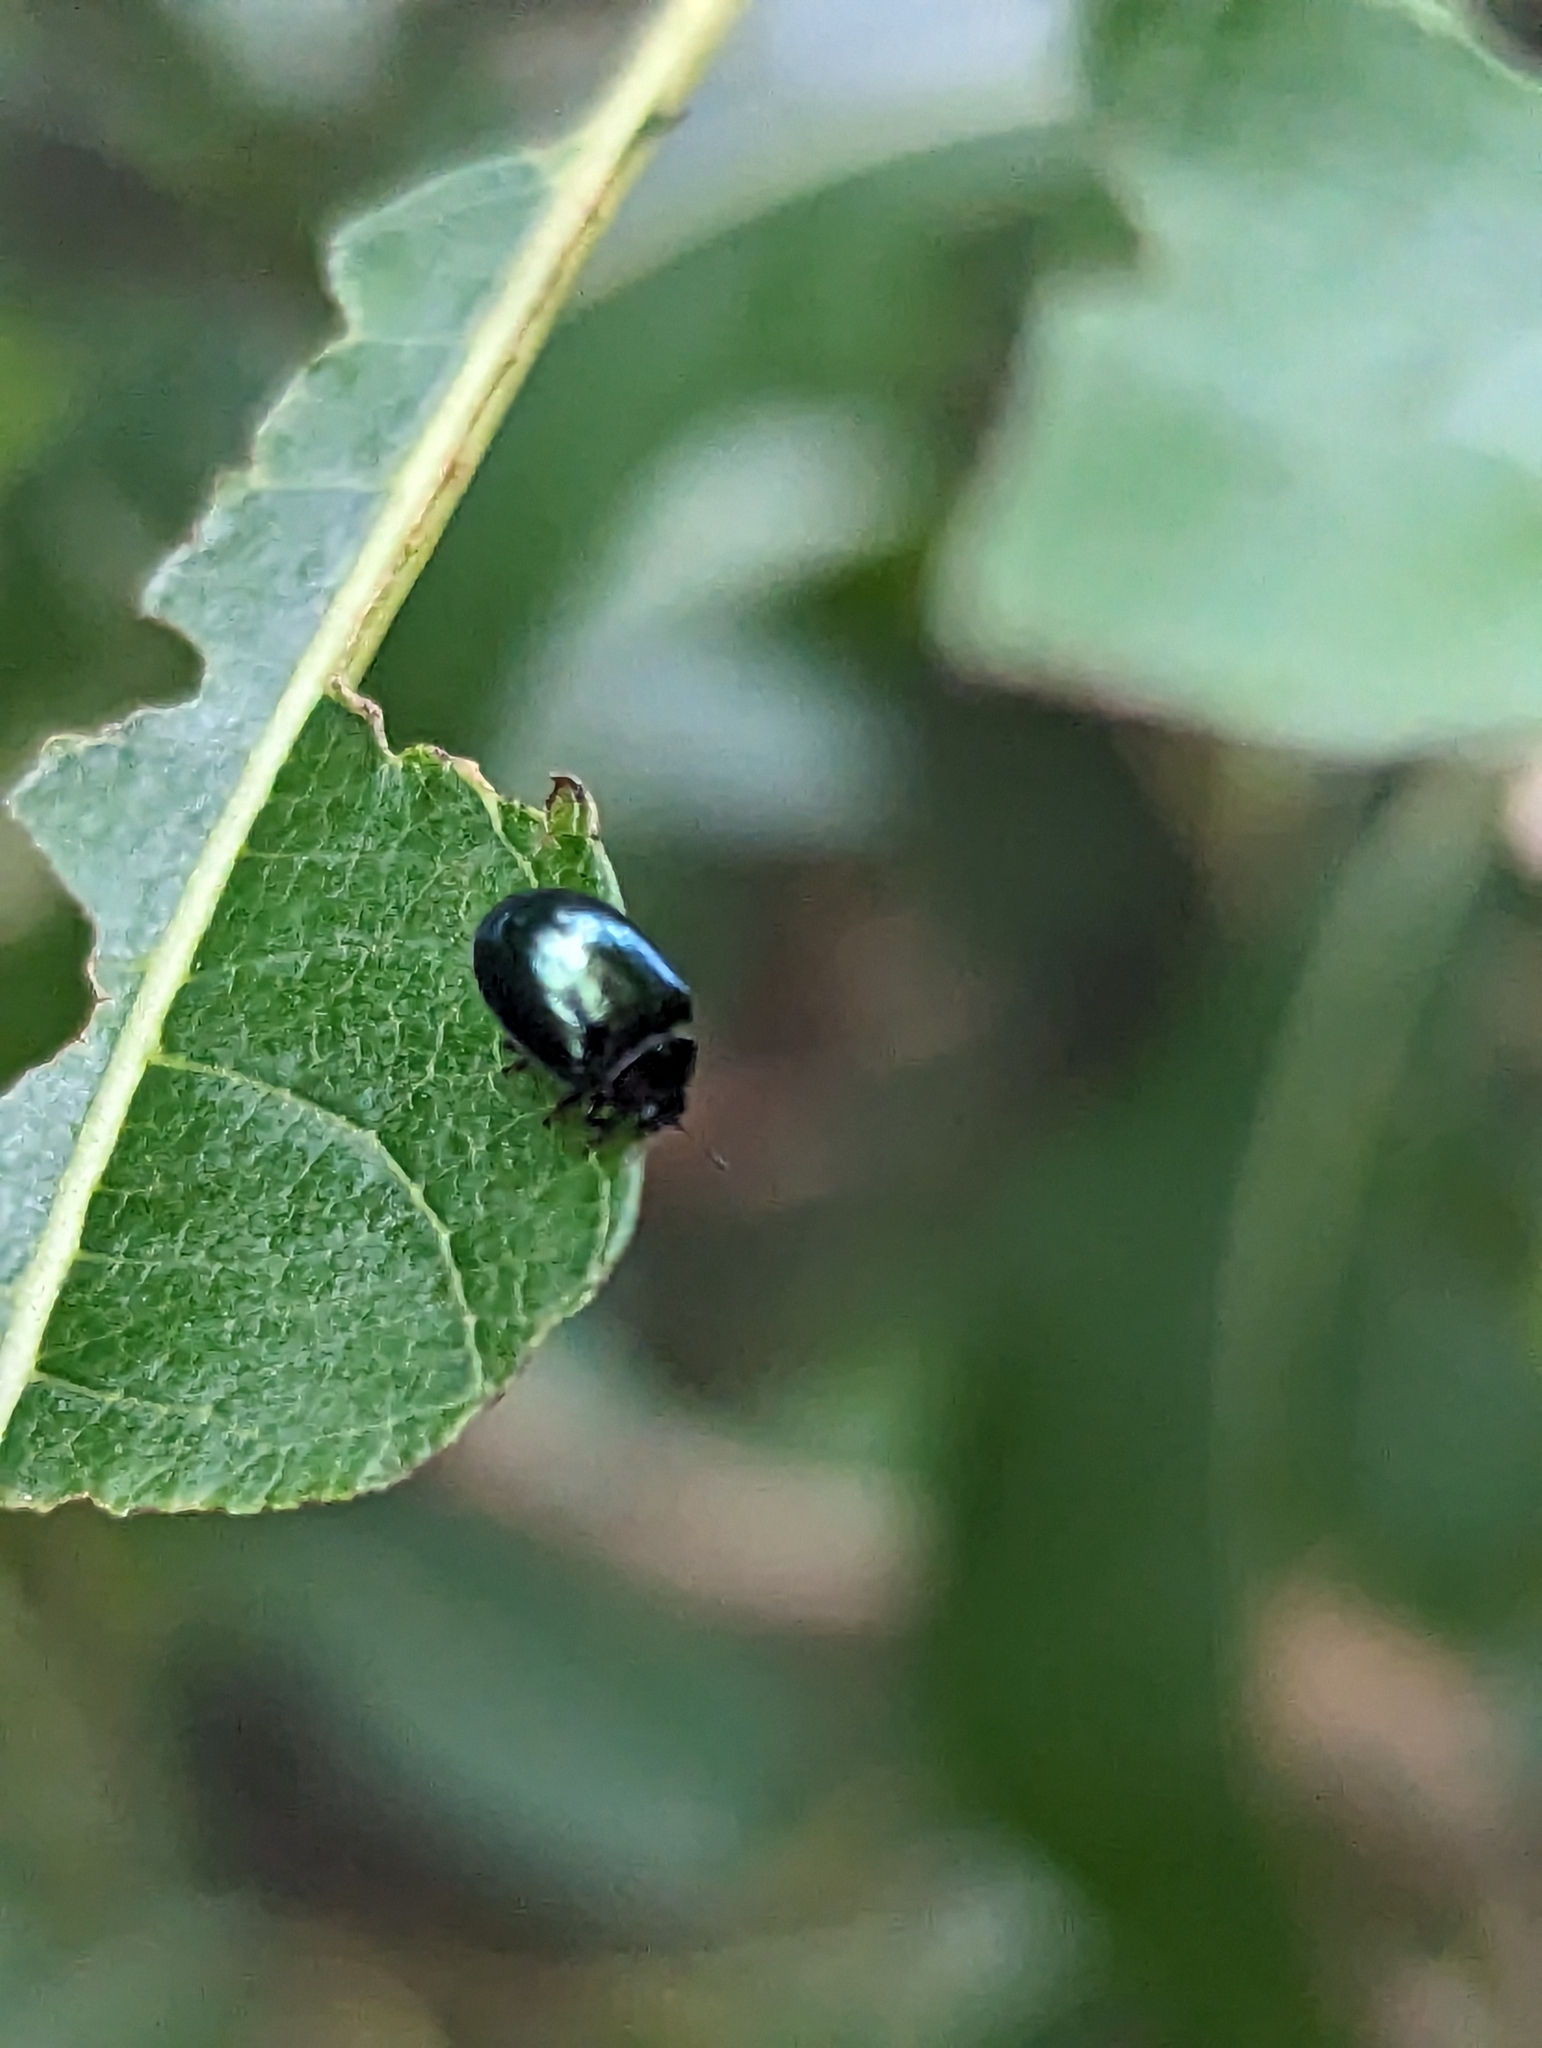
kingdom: Animalia
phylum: Arthropoda
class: Insecta
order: Coleoptera
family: Chrysomelidae
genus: Plagiodera
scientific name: Plagiodera versicolora
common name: Imported willow leaf beetle
